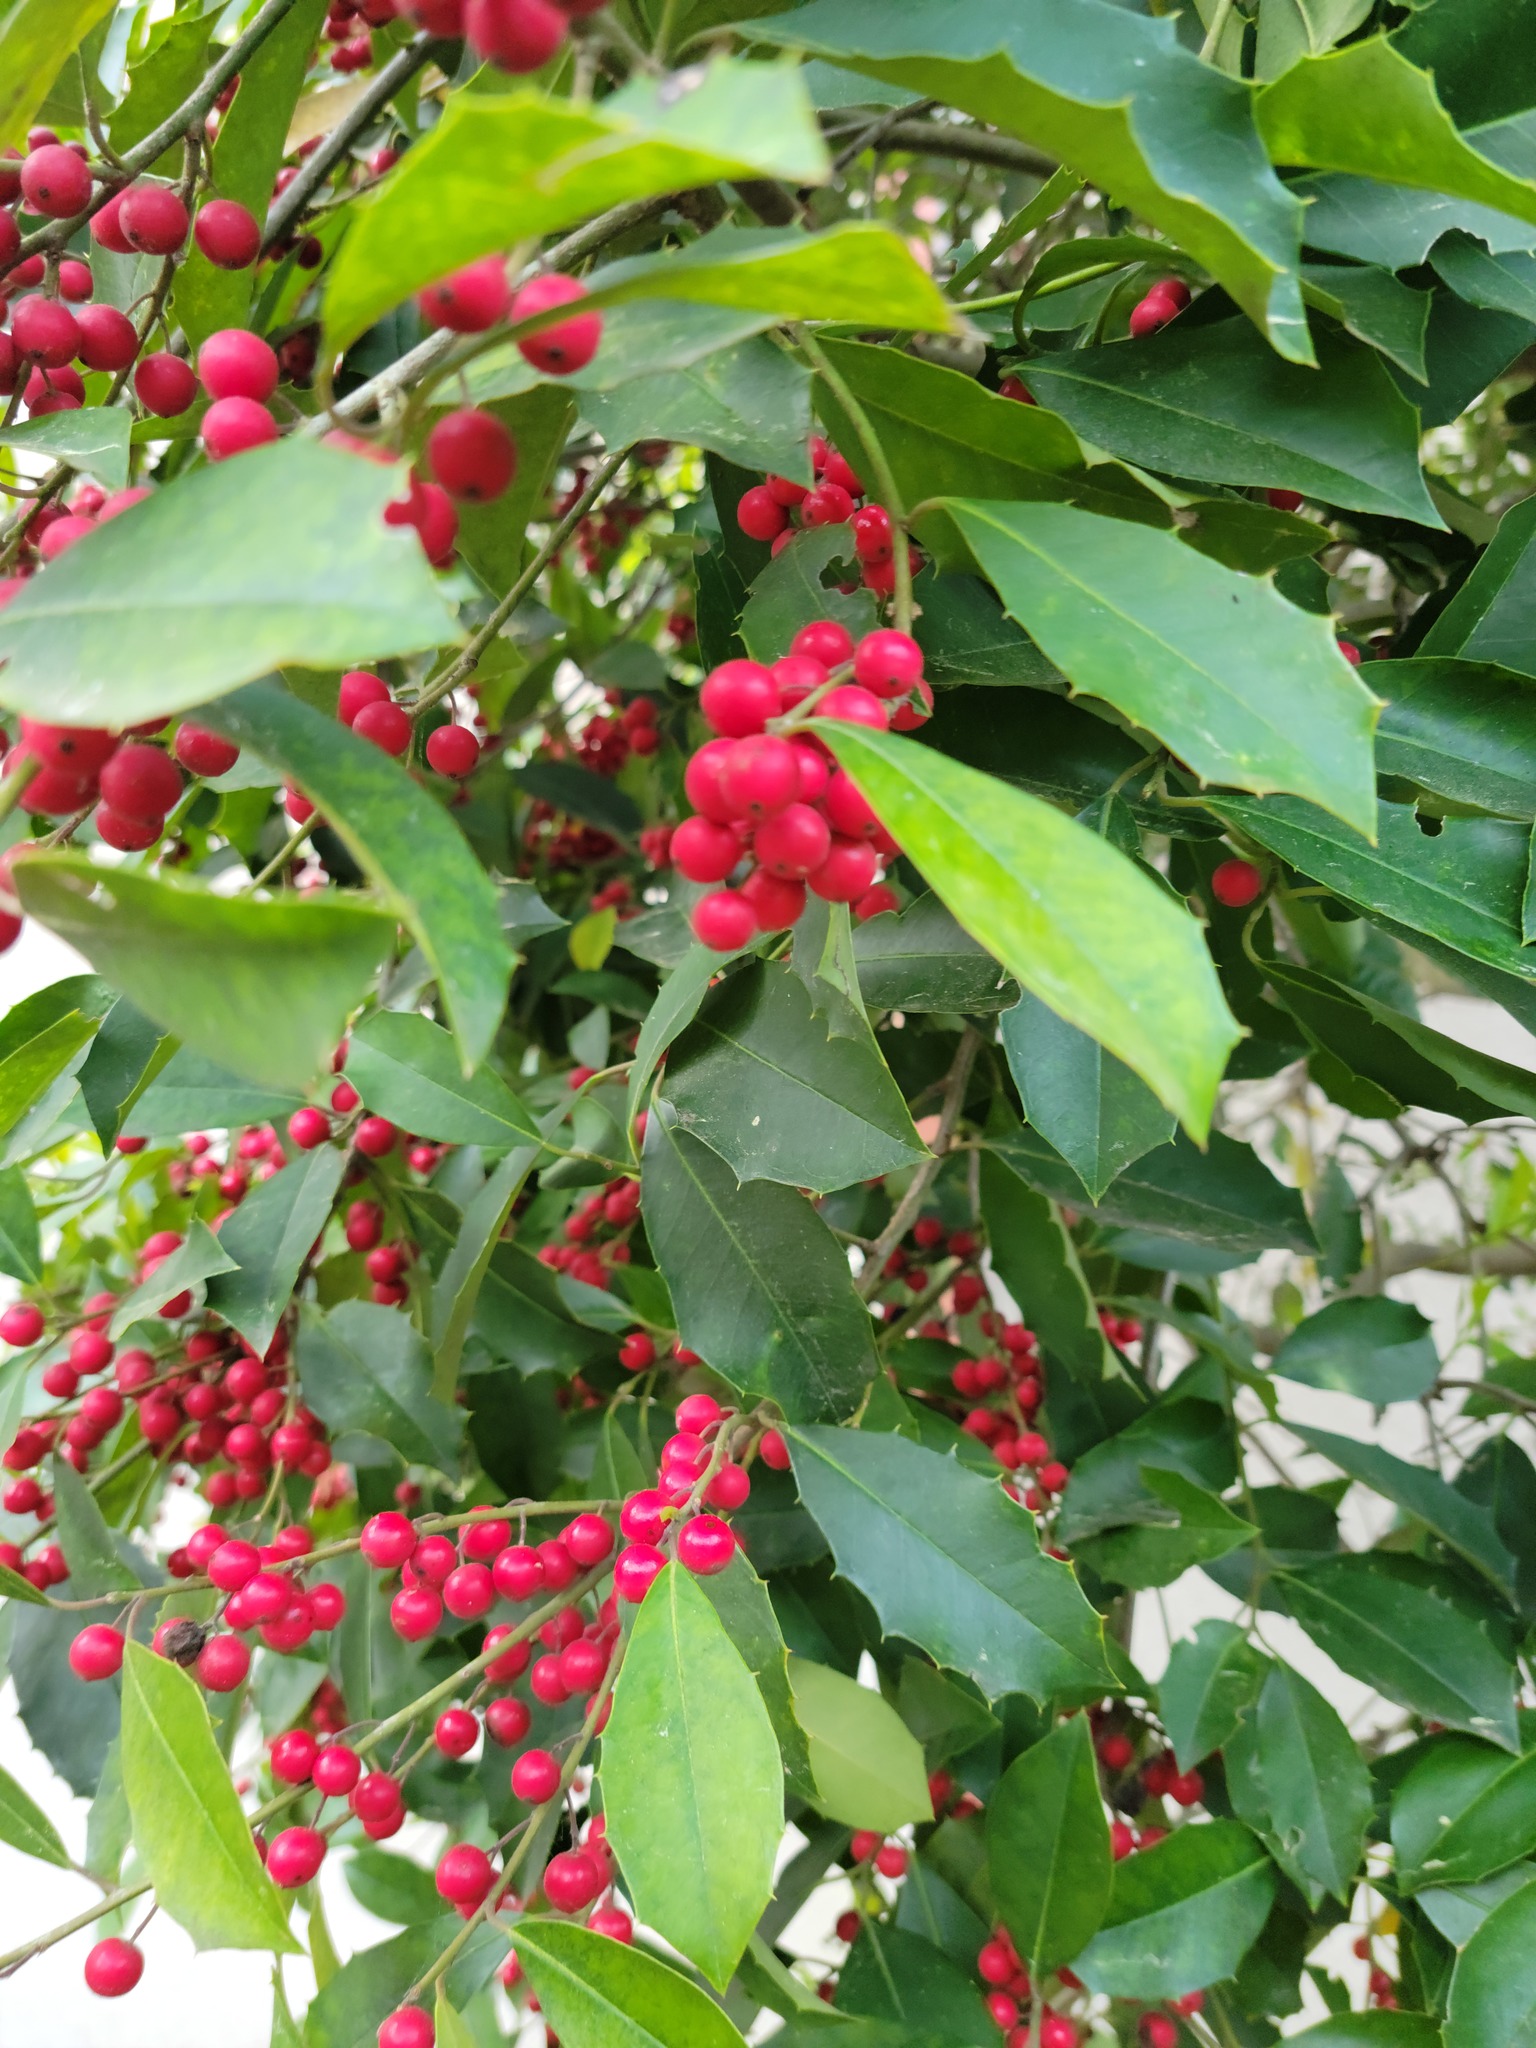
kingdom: Plantae
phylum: Tracheophyta
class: Magnoliopsida
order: Aquifoliales
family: Aquifoliaceae
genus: Ilex
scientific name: Ilex opaca
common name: American holly
